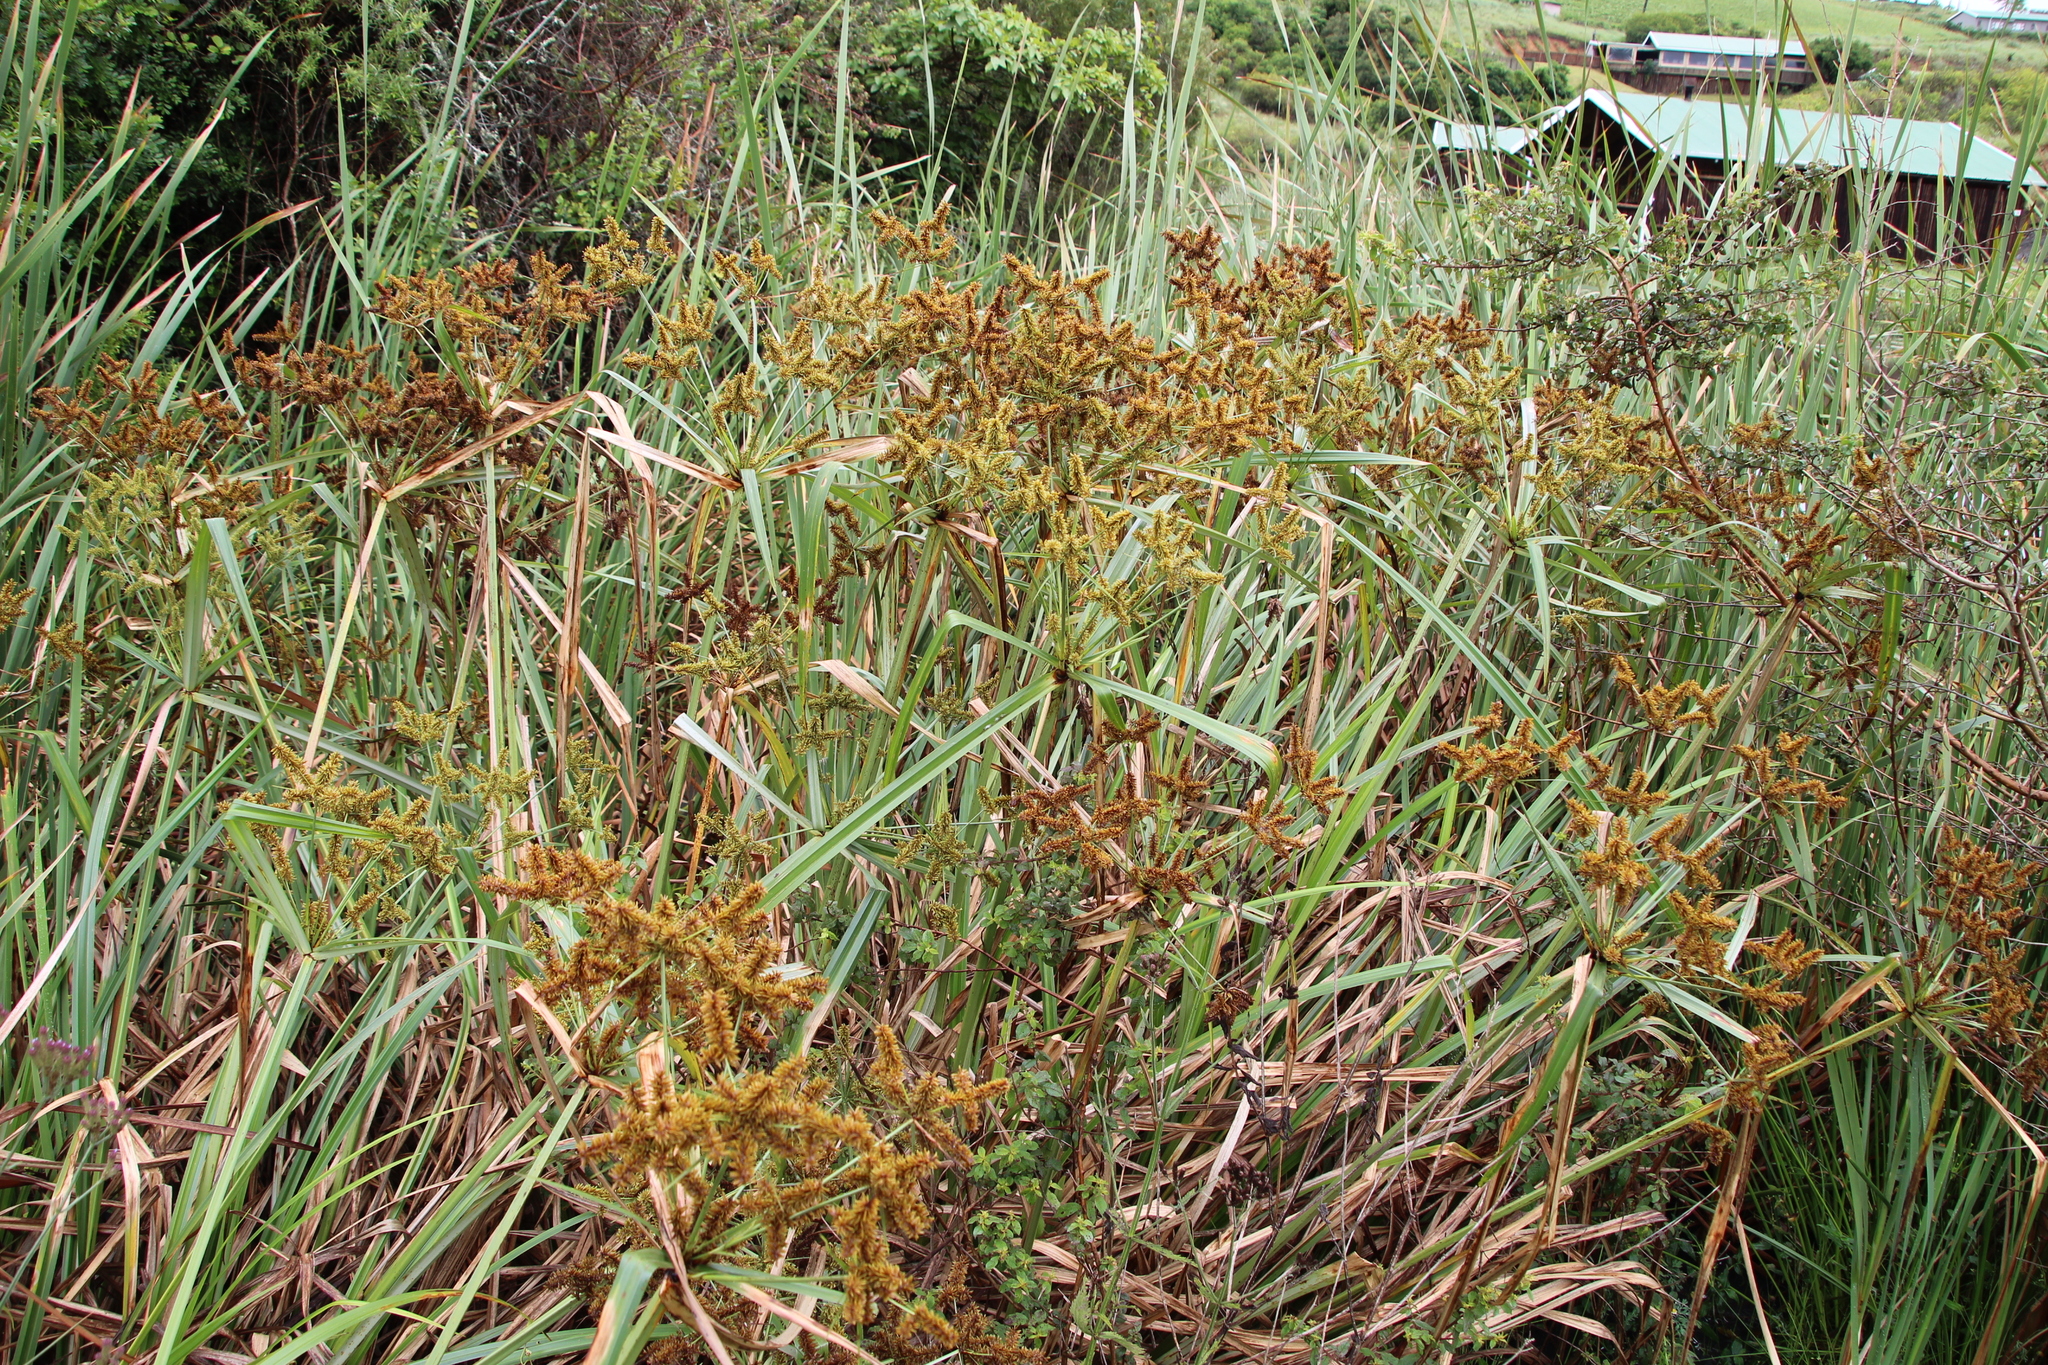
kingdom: Plantae
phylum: Tracheophyta
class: Liliopsida
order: Poales
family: Cyperaceae
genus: Cyperus
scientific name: Cyperus dives
